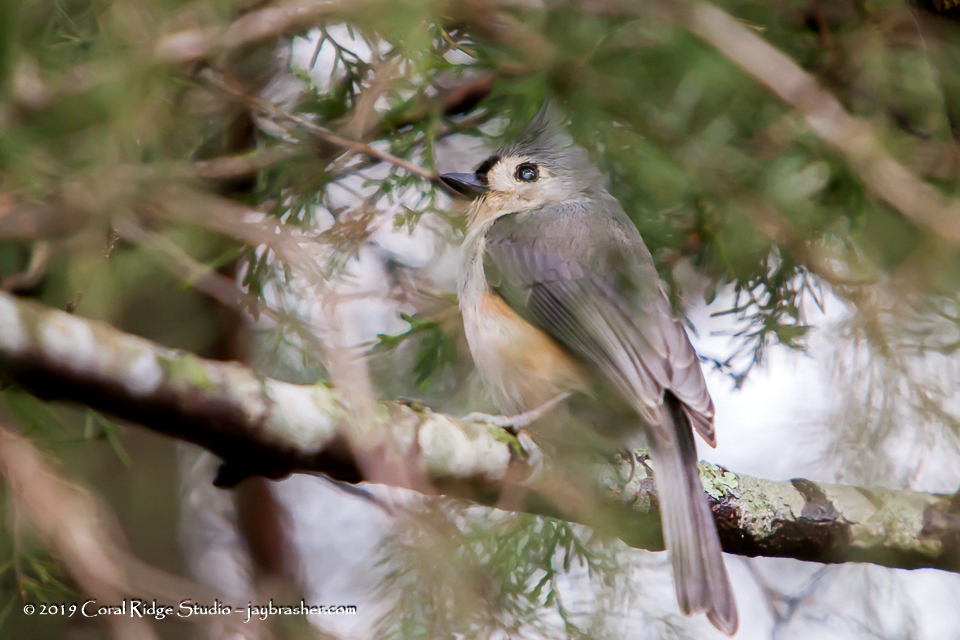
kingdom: Animalia
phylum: Chordata
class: Aves
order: Passeriformes
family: Paridae
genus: Baeolophus
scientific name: Baeolophus bicolor
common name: Tufted titmouse
